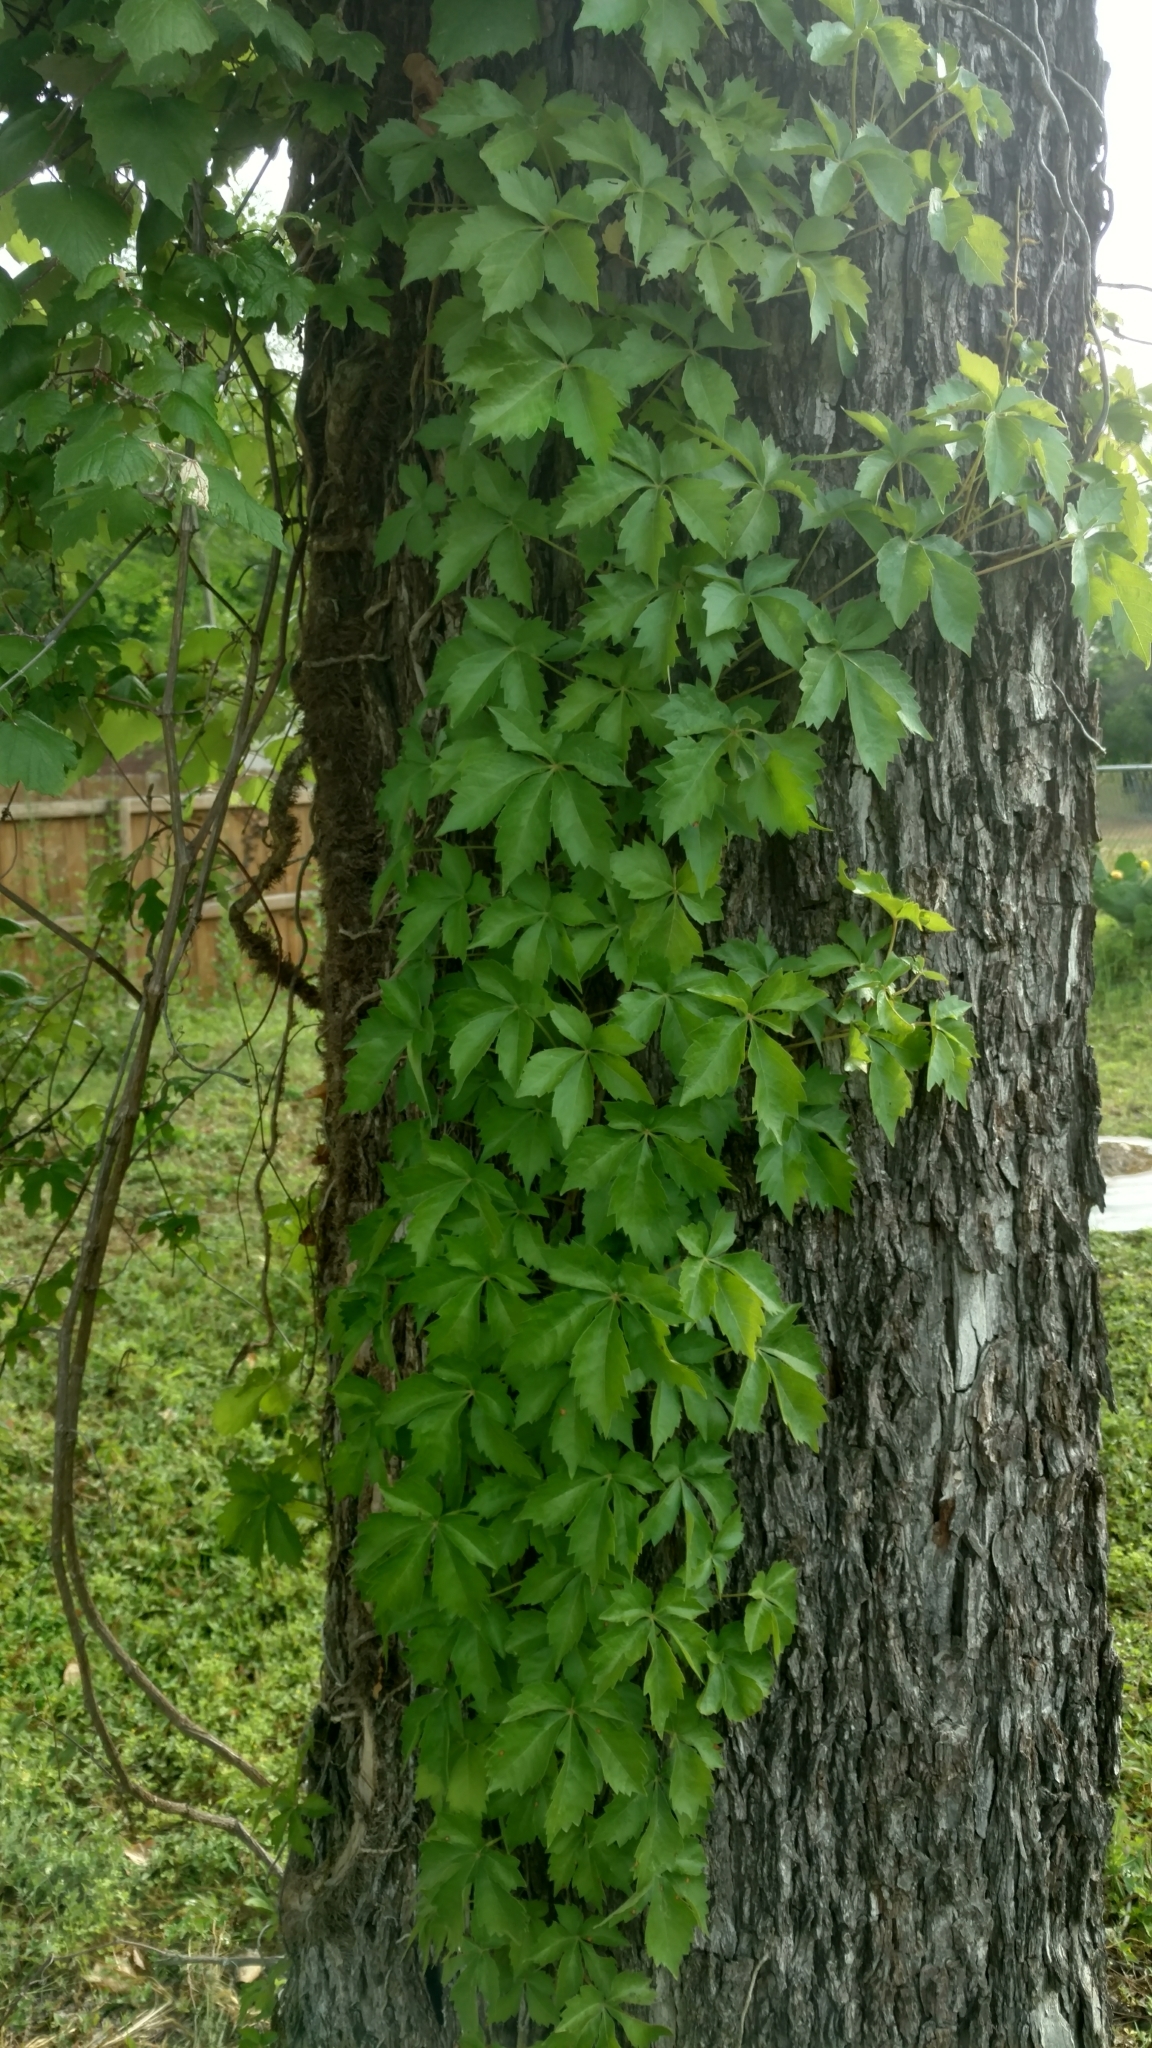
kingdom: Plantae
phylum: Tracheophyta
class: Magnoliopsida
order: Vitales
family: Vitaceae
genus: Parthenocissus
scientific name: Parthenocissus quinquefolia
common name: Virginia-creeper
